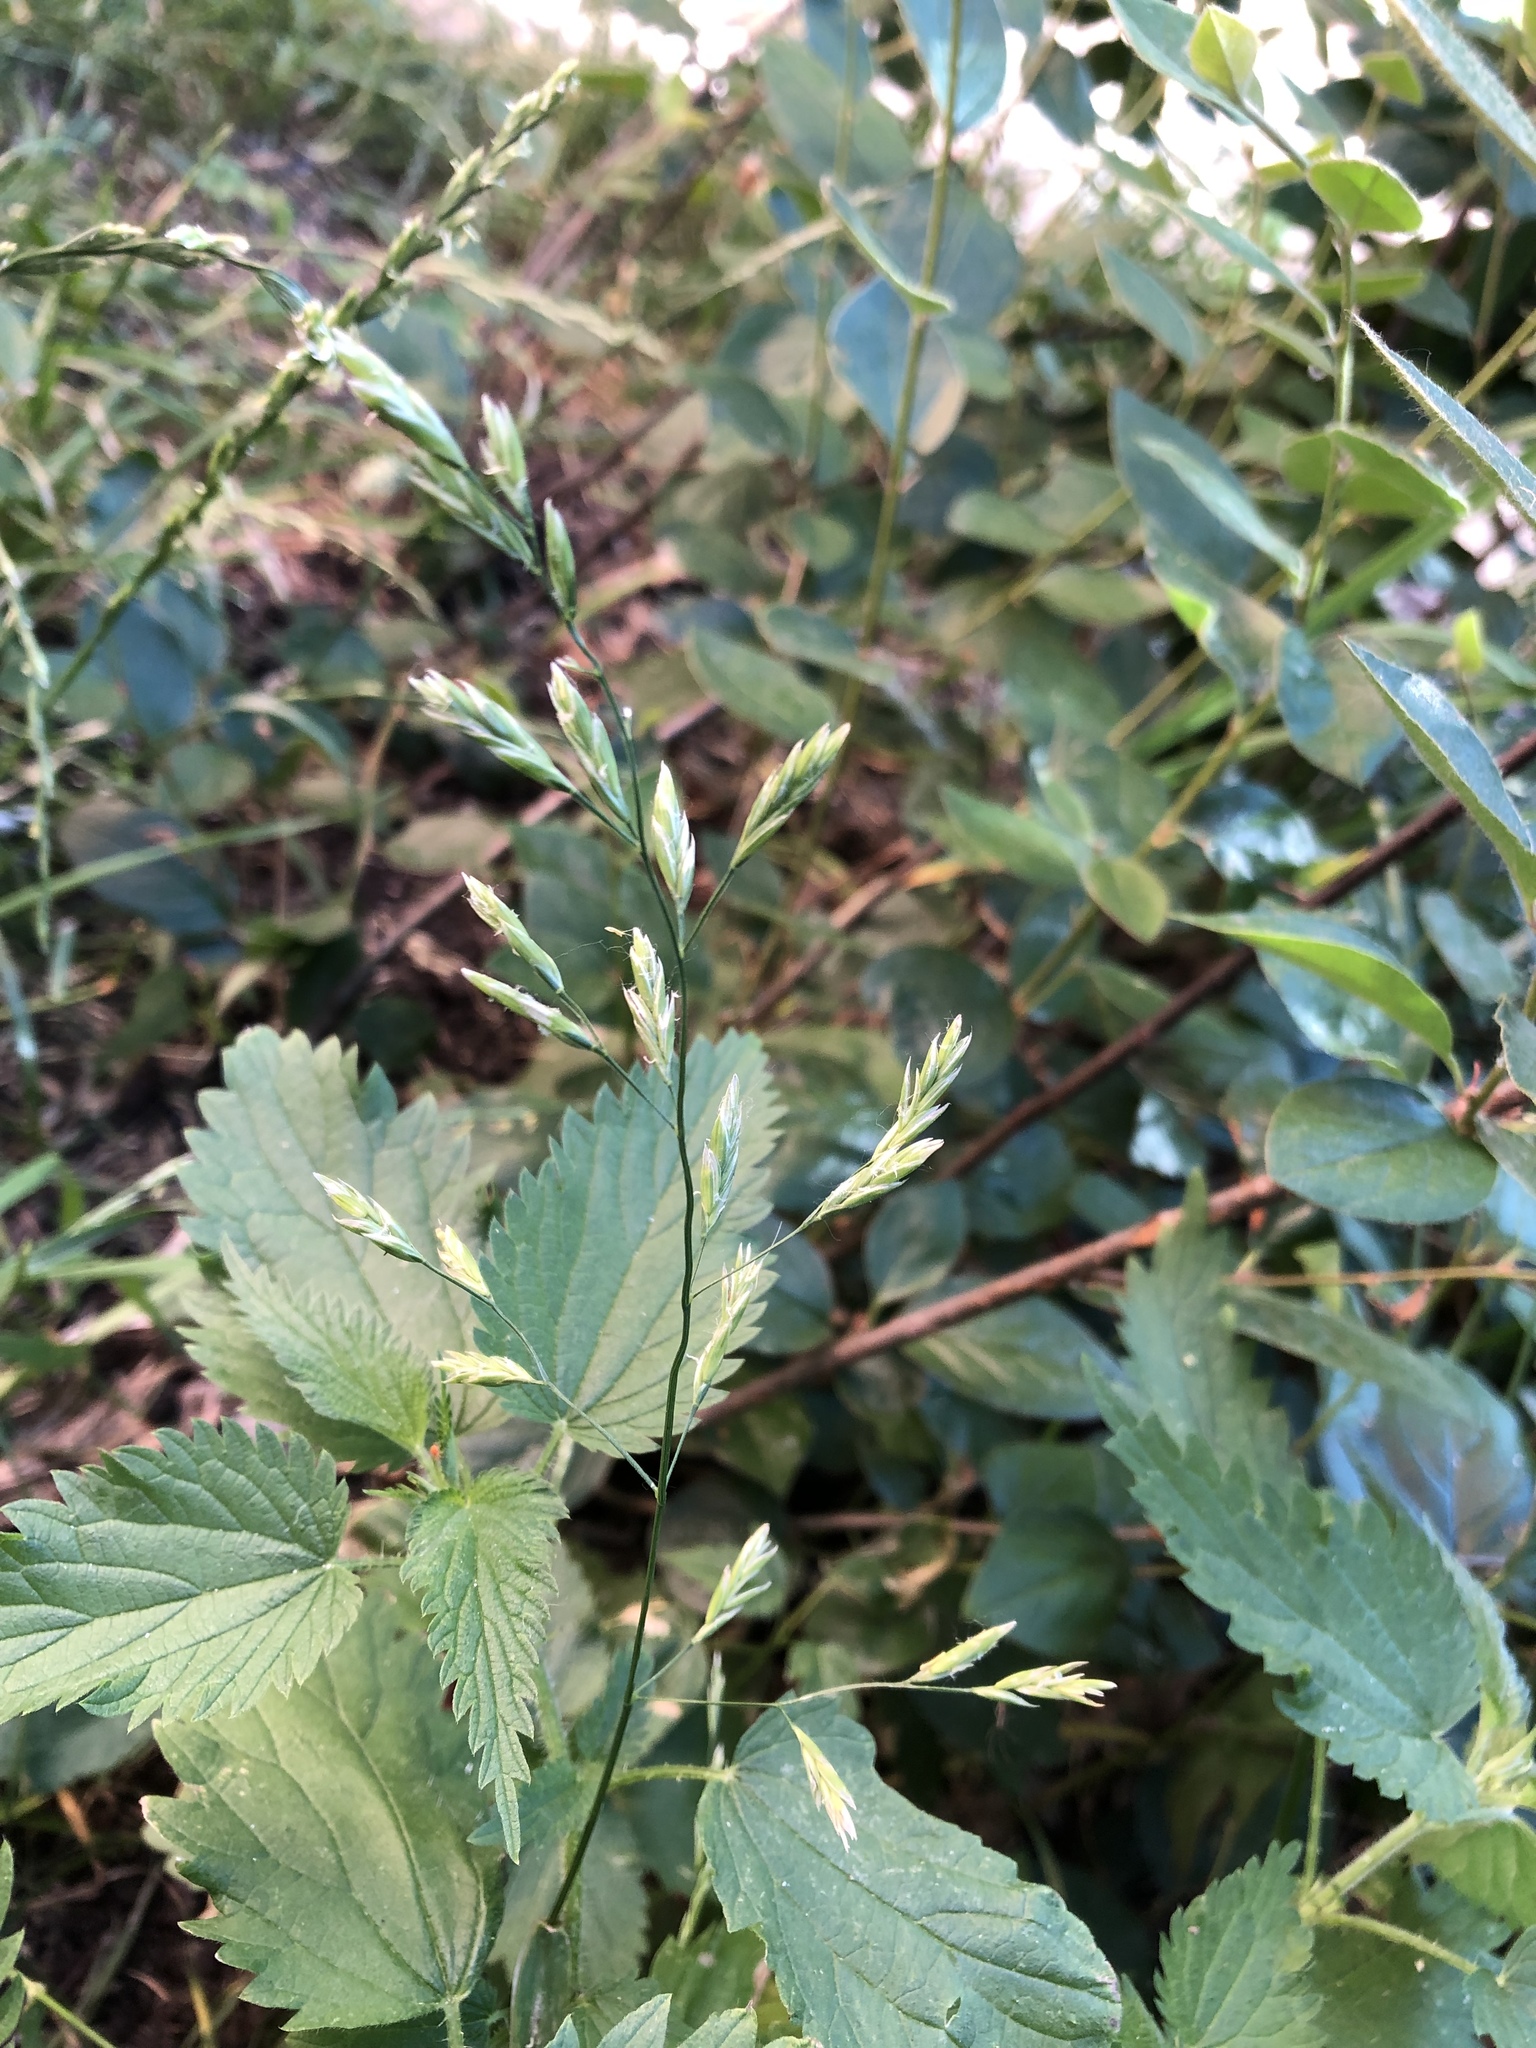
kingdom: Plantae
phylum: Tracheophyta
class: Liliopsida
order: Poales
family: Poaceae
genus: Lolium
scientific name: Lolium pratense
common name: Dover grass
